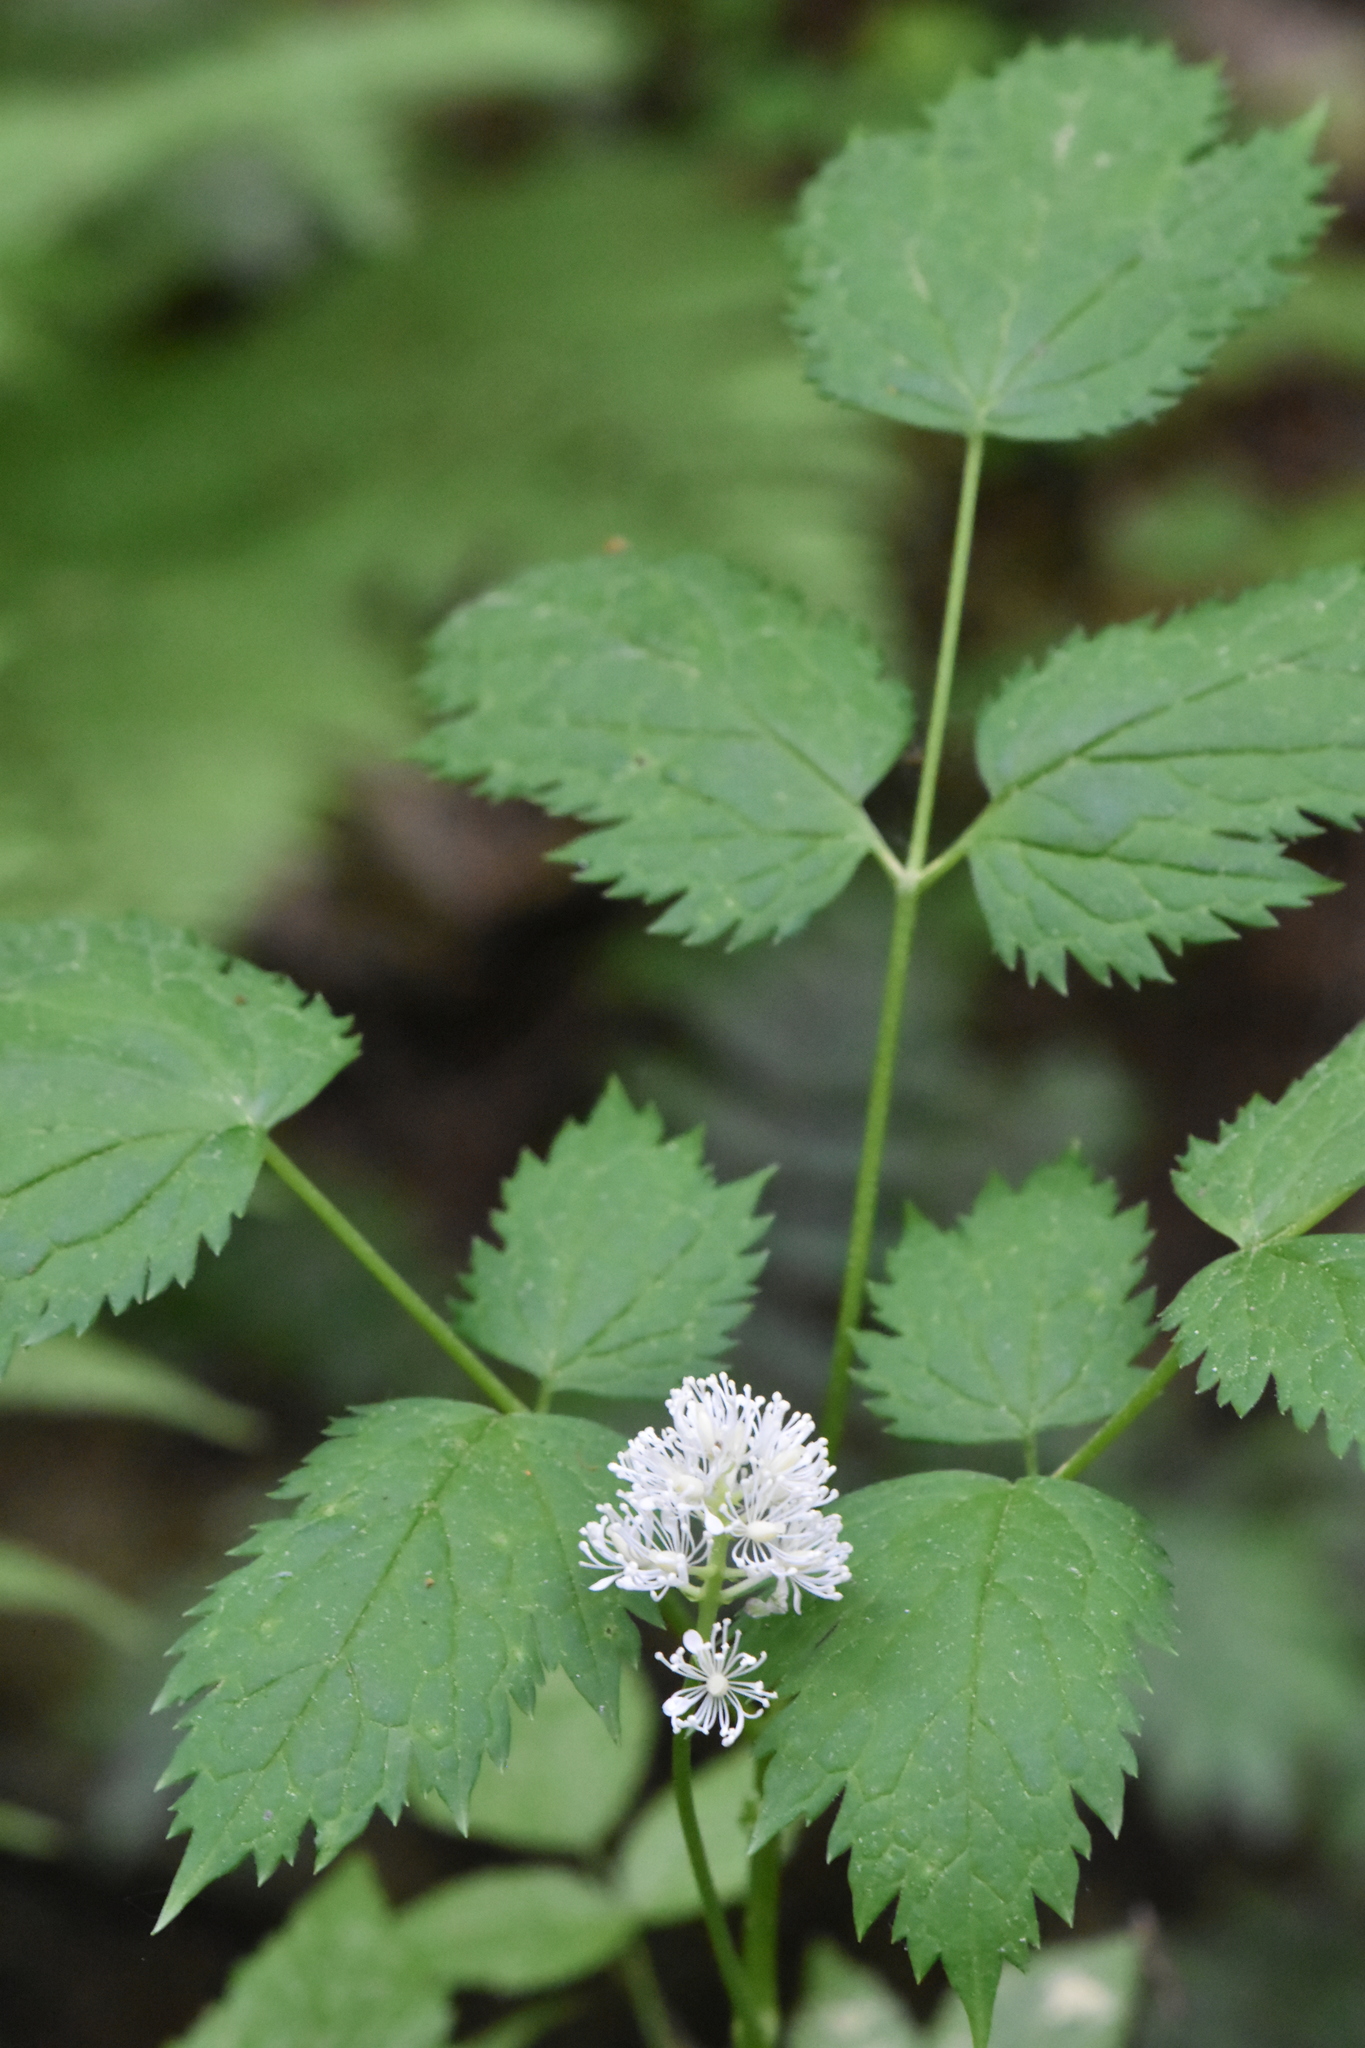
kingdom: Plantae
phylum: Tracheophyta
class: Magnoliopsida
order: Ranunculales
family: Ranunculaceae
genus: Actaea
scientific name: Actaea spicata
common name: Baneberry
